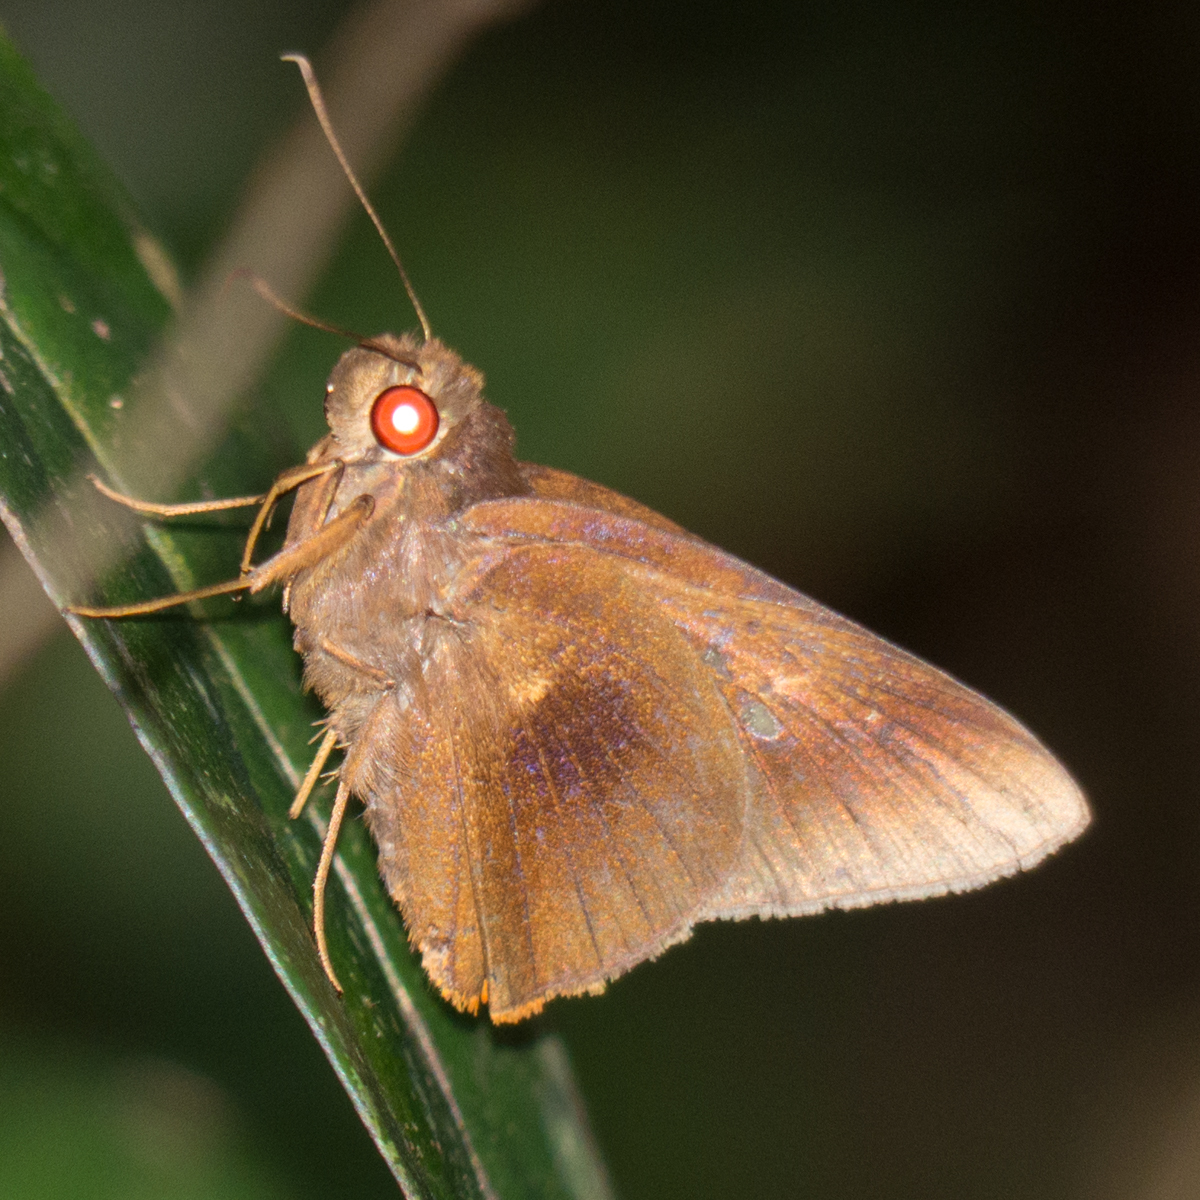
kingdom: Animalia
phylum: Arthropoda
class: Insecta
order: Lepidoptera
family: Hesperiidae
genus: Zela
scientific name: Zela zeus
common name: Orange-ciliate palmer
